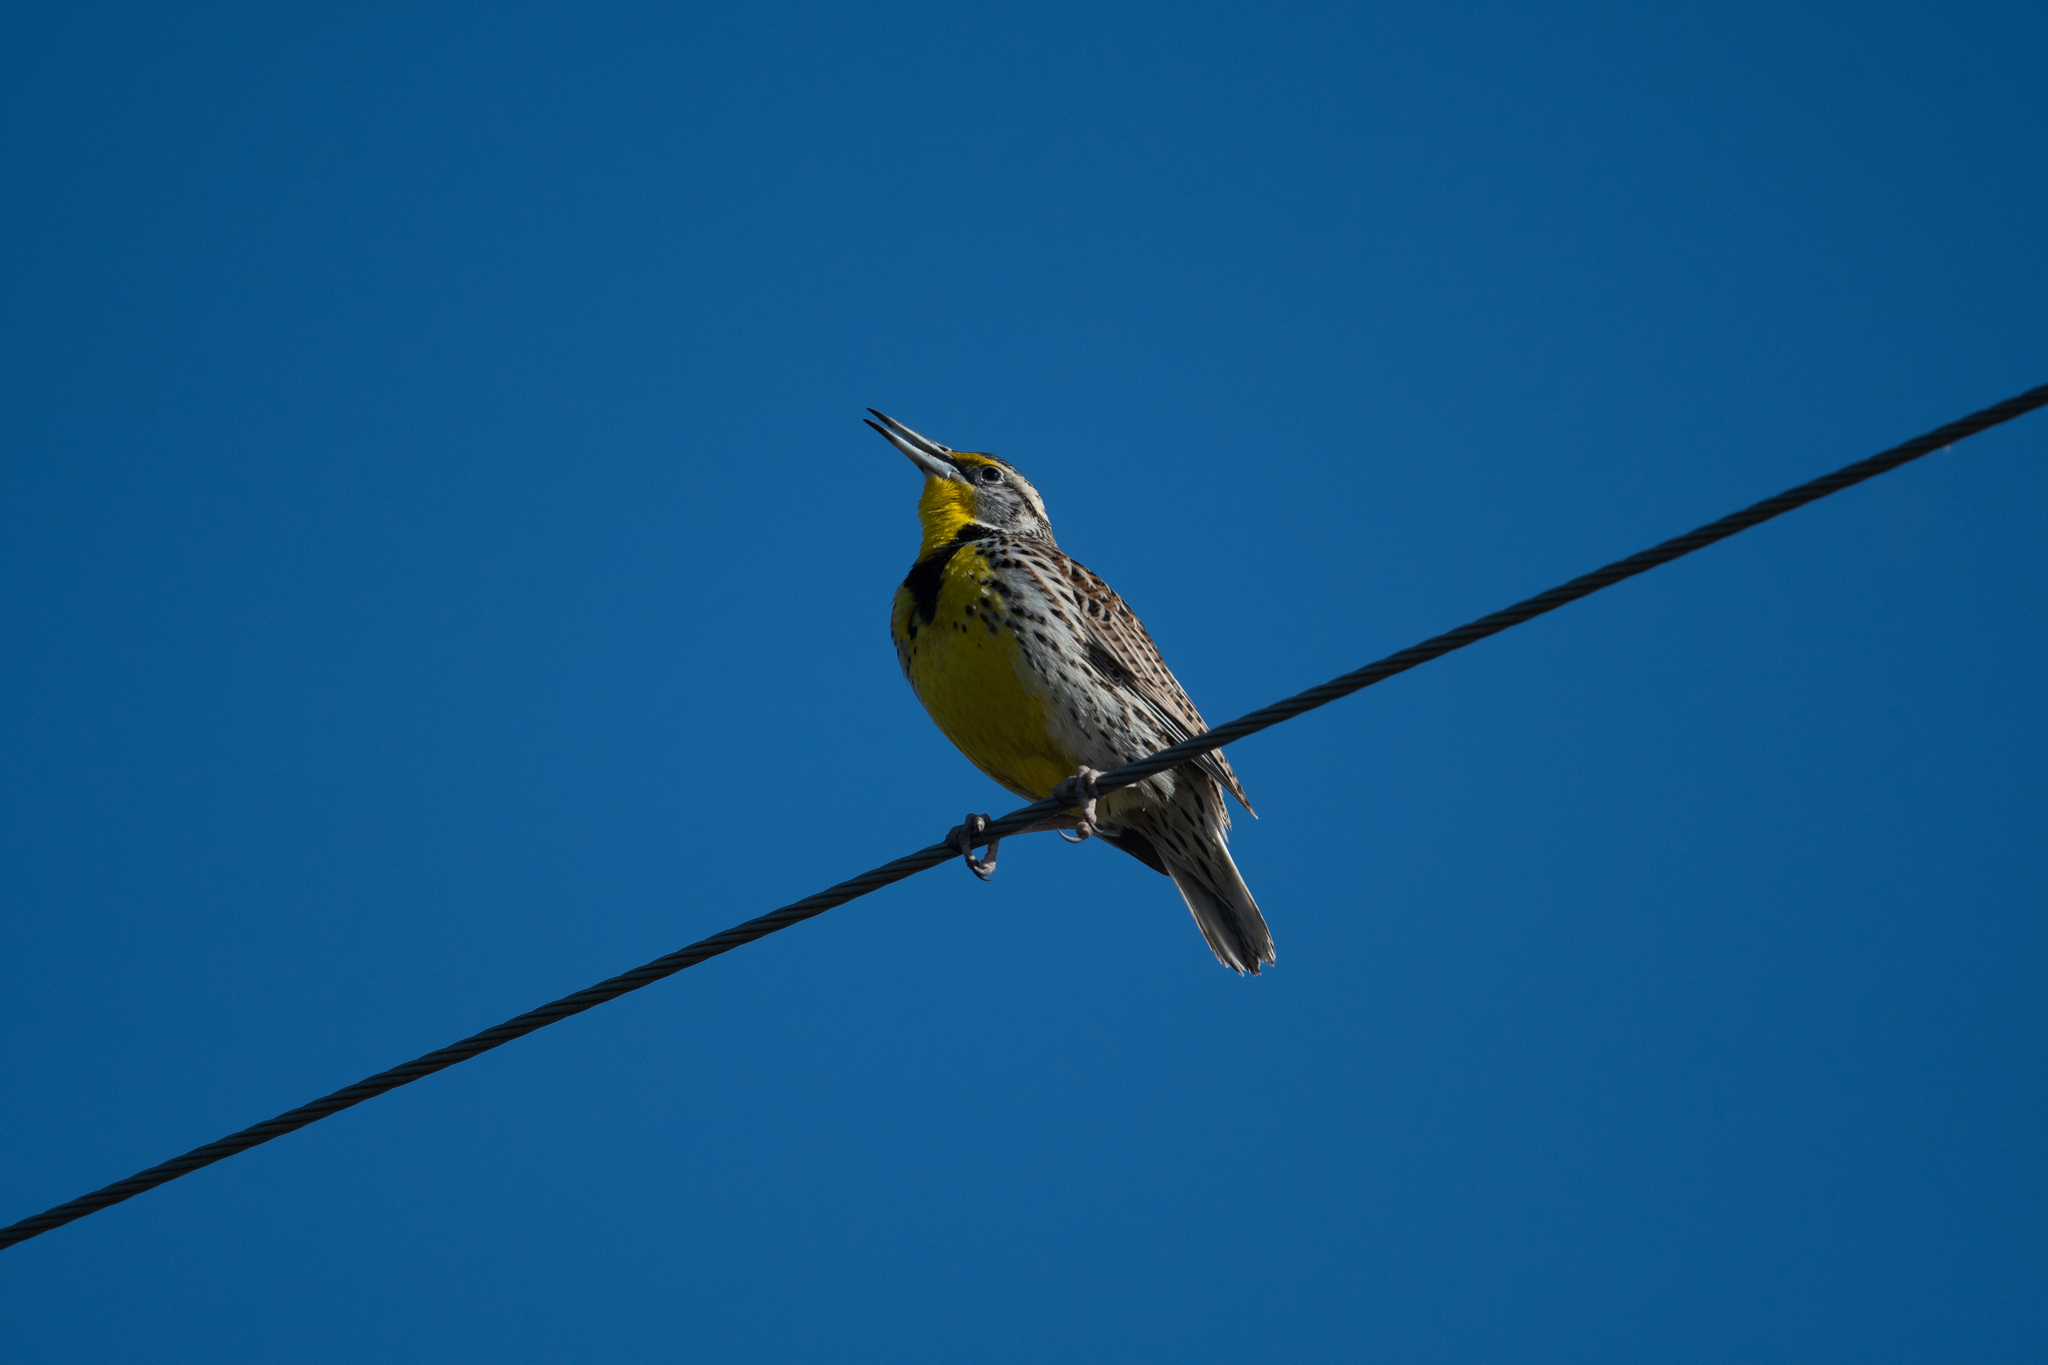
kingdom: Animalia
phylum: Chordata
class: Aves
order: Passeriformes
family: Icteridae
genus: Sturnella
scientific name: Sturnella neglecta
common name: Western meadowlark
